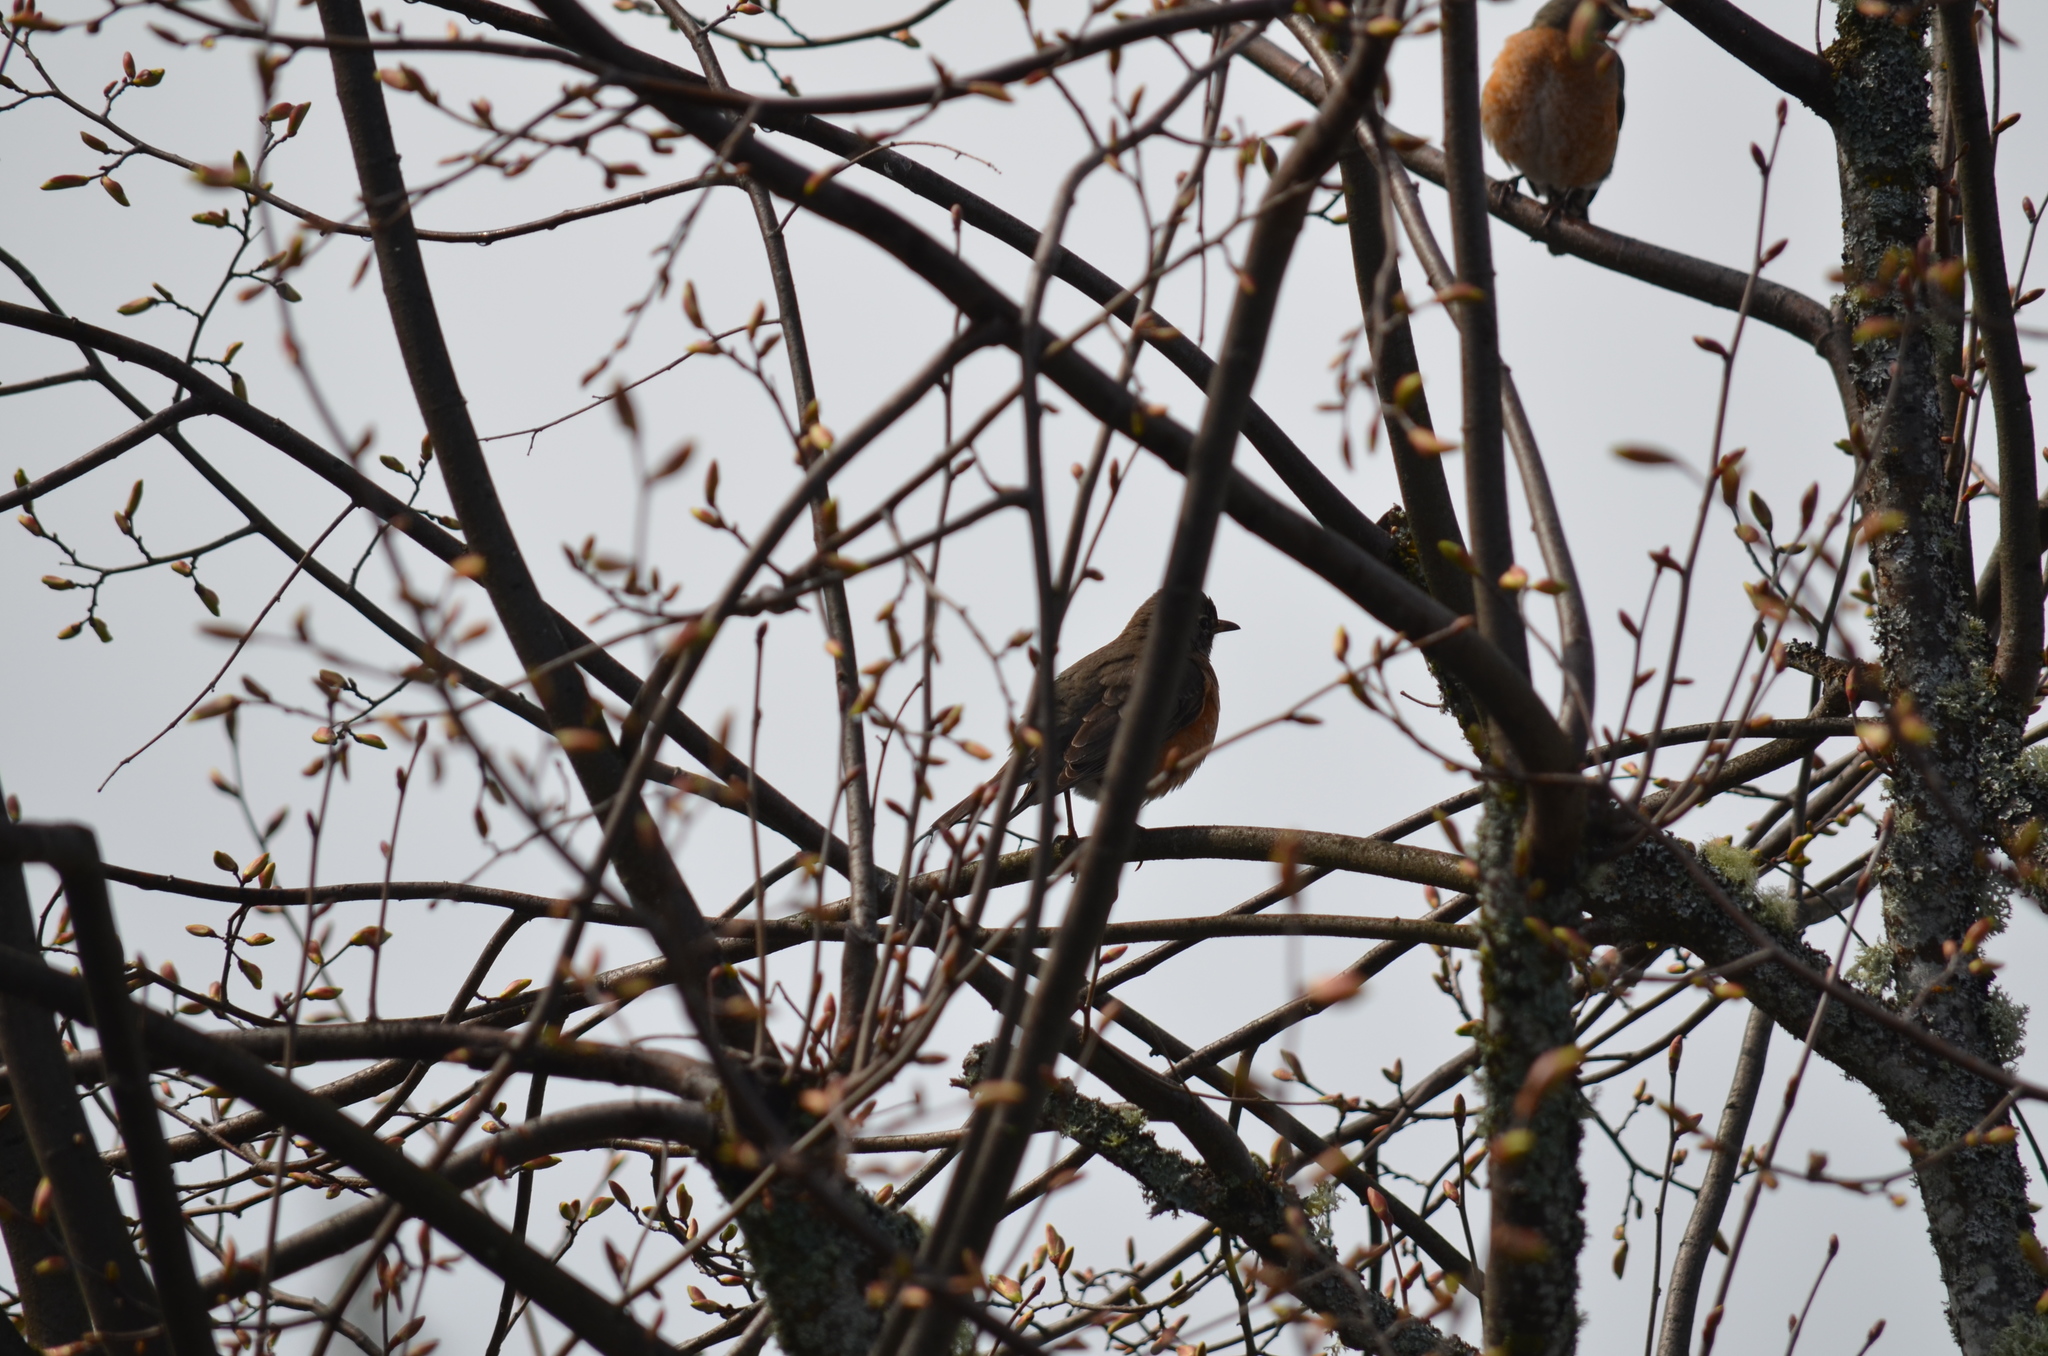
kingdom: Animalia
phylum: Chordata
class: Aves
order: Passeriformes
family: Turdidae
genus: Turdus
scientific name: Turdus migratorius
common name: American robin
